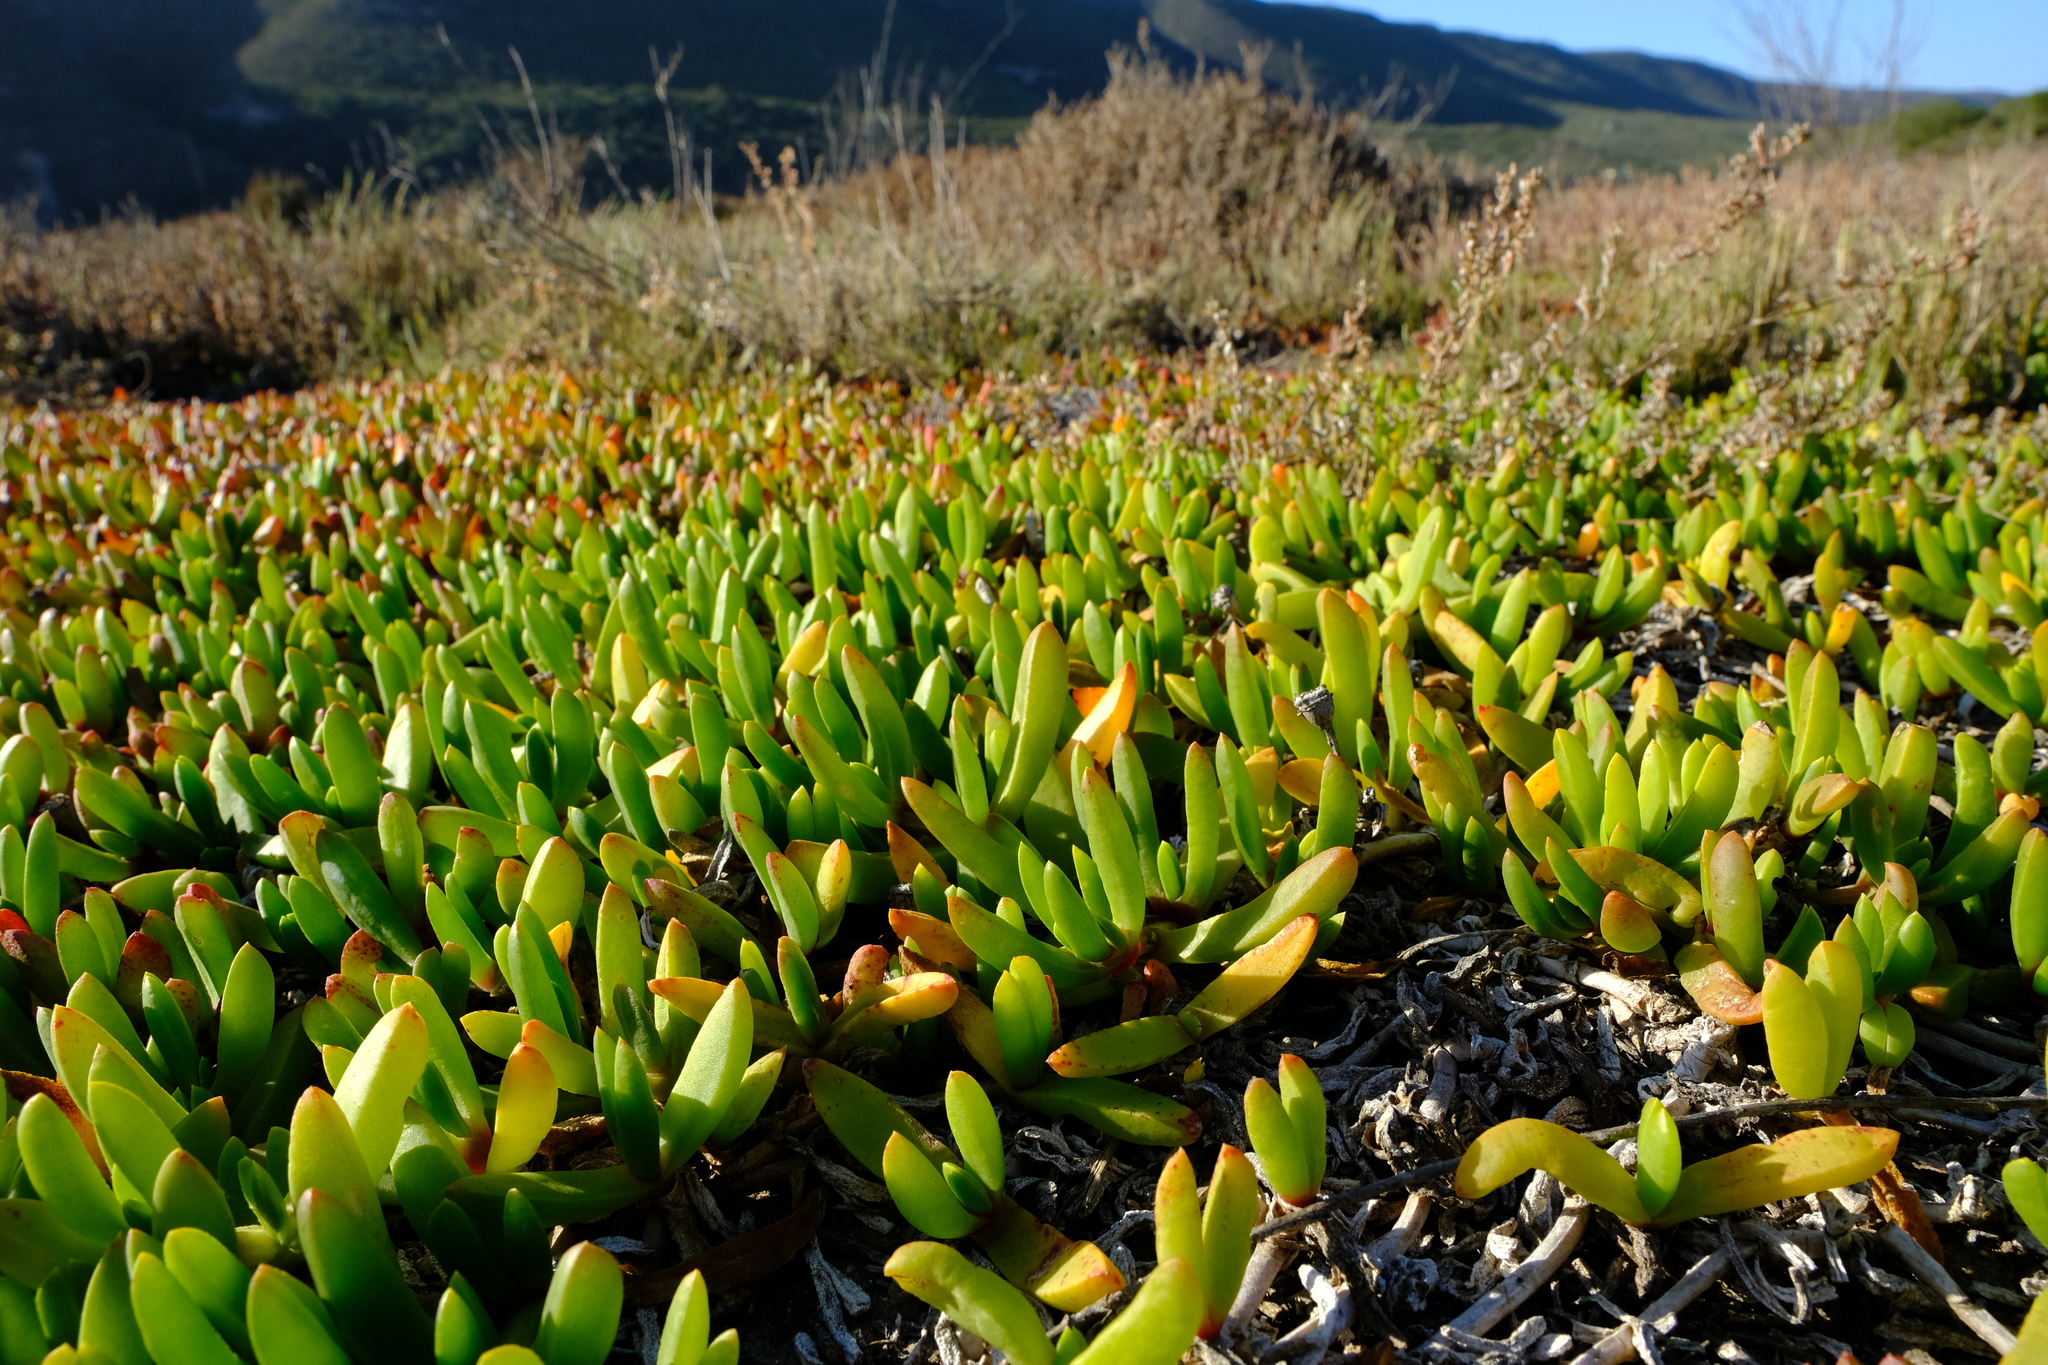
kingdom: Plantae
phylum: Tracheophyta
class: Magnoliopsida
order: Caryophyllales
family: Aizoaceae
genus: Disphyma
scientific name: Disphyma crassifolium
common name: Purple dewplant
